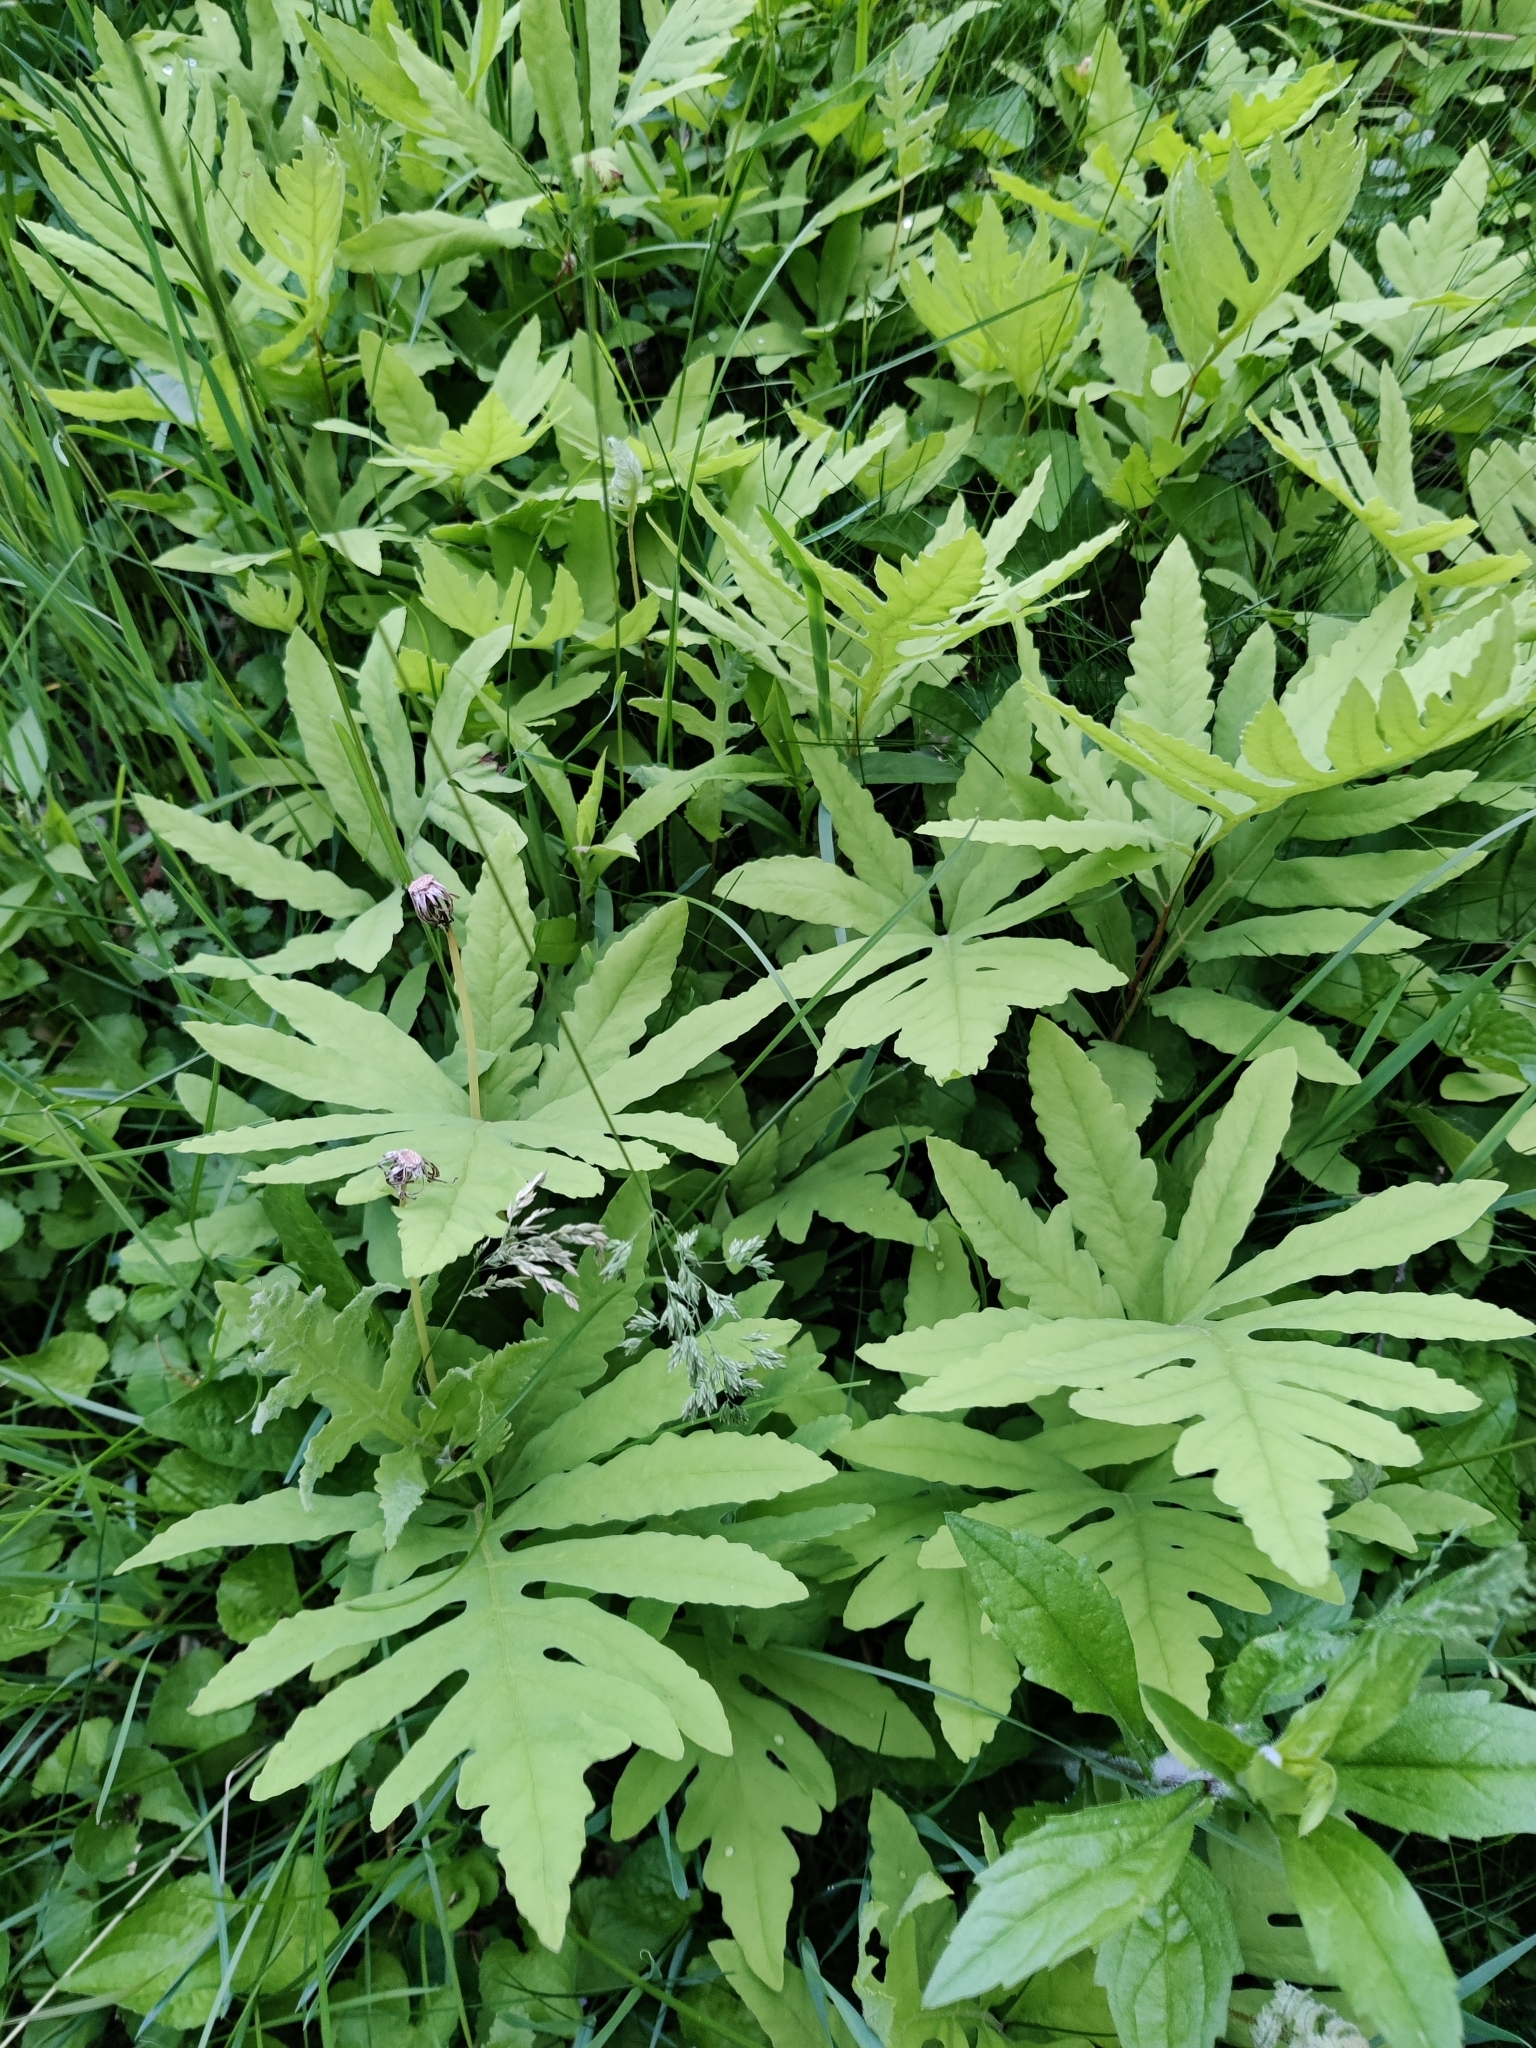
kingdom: Plantae
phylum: Tracheophyta
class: Polypodiopsida
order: Polypodiales
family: Onocleaceae
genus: Onoclea
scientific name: Onoclea sensibilis
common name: Sensitive fern
